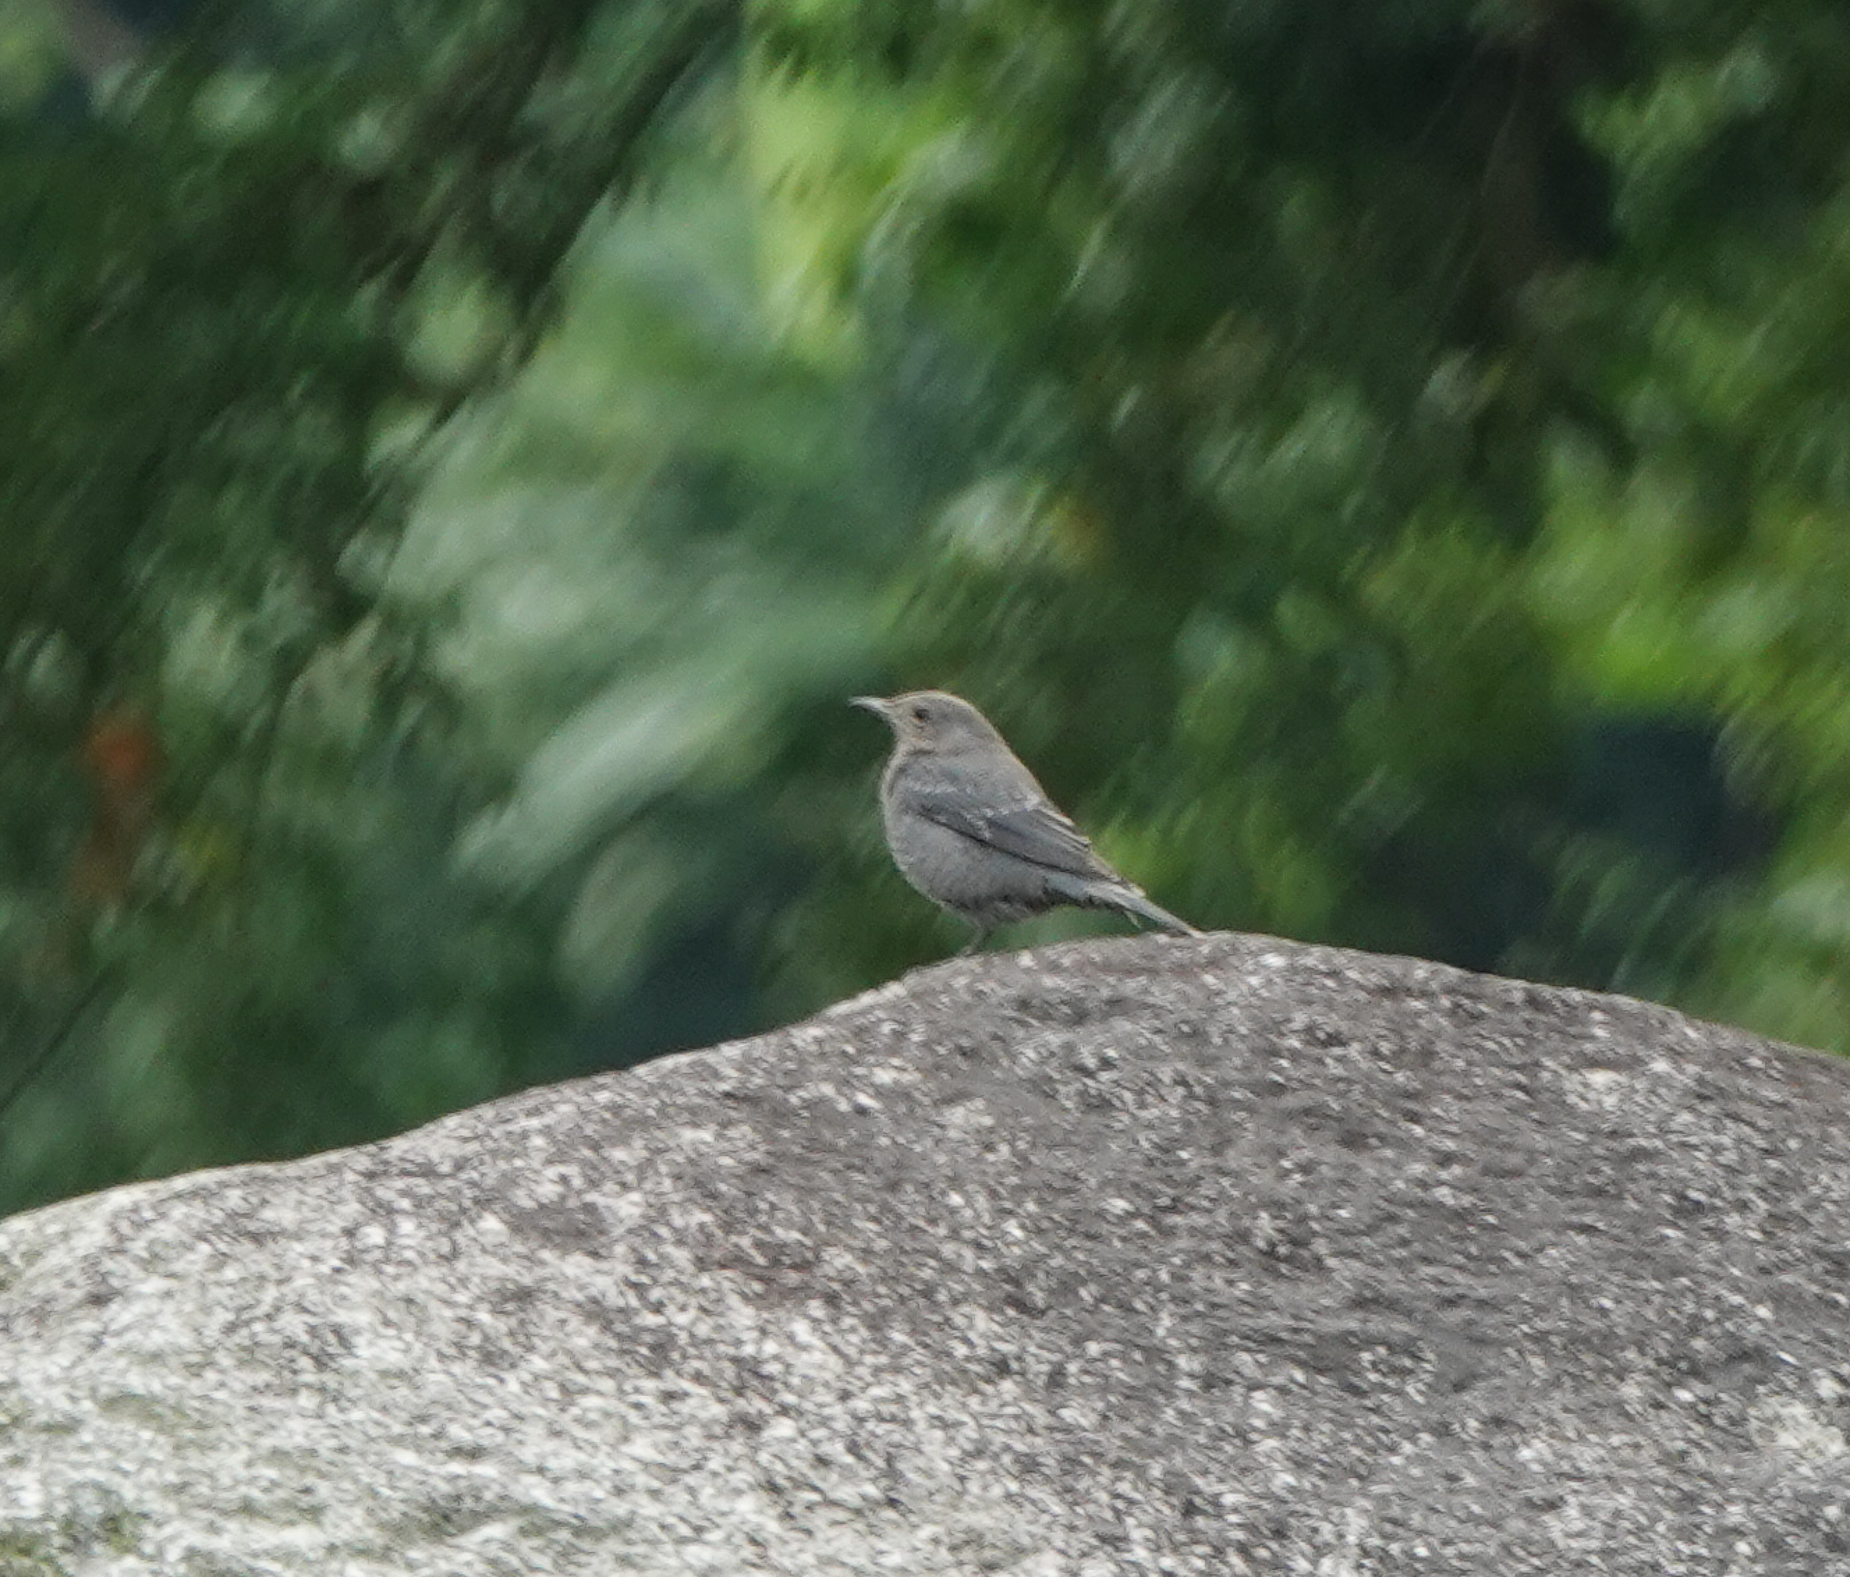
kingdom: Animalia
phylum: Chordata
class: Aves
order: Passeriformes
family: Muscicapidae
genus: Monticola
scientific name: Monticola solitarius
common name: Blue rock thrush
